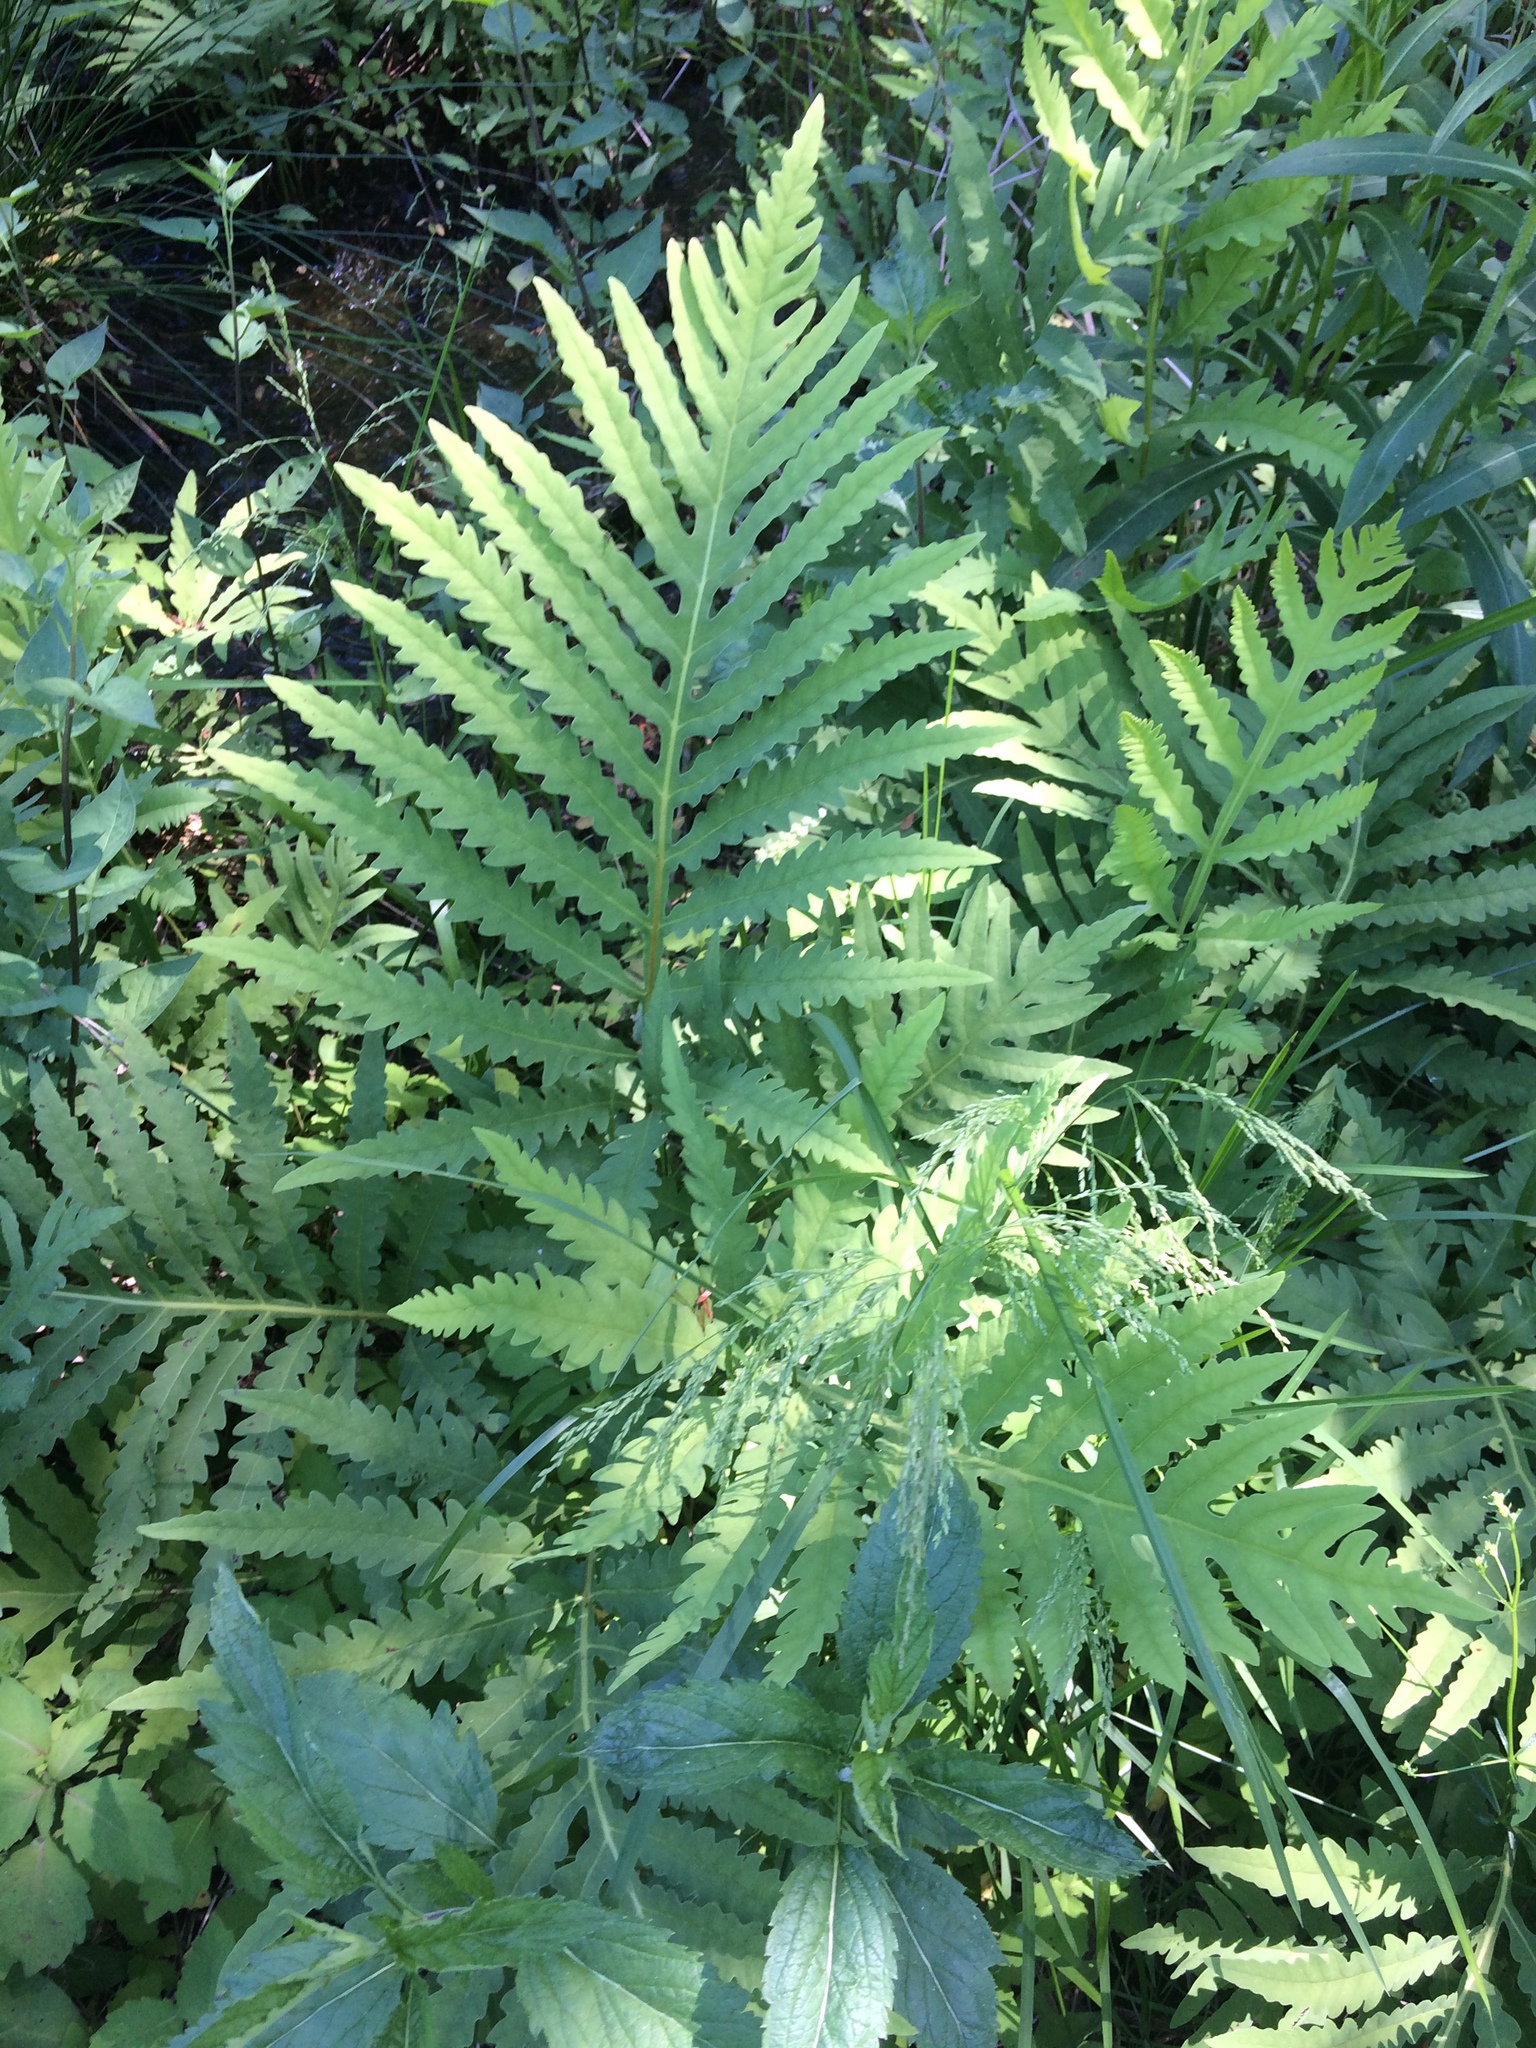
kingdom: Plantae
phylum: Tracheophyta
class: Polypodiopsida
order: Polypodiales
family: Onocleaceae
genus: Onoclea
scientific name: Onoclea sensibilis
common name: Sensitive fern
